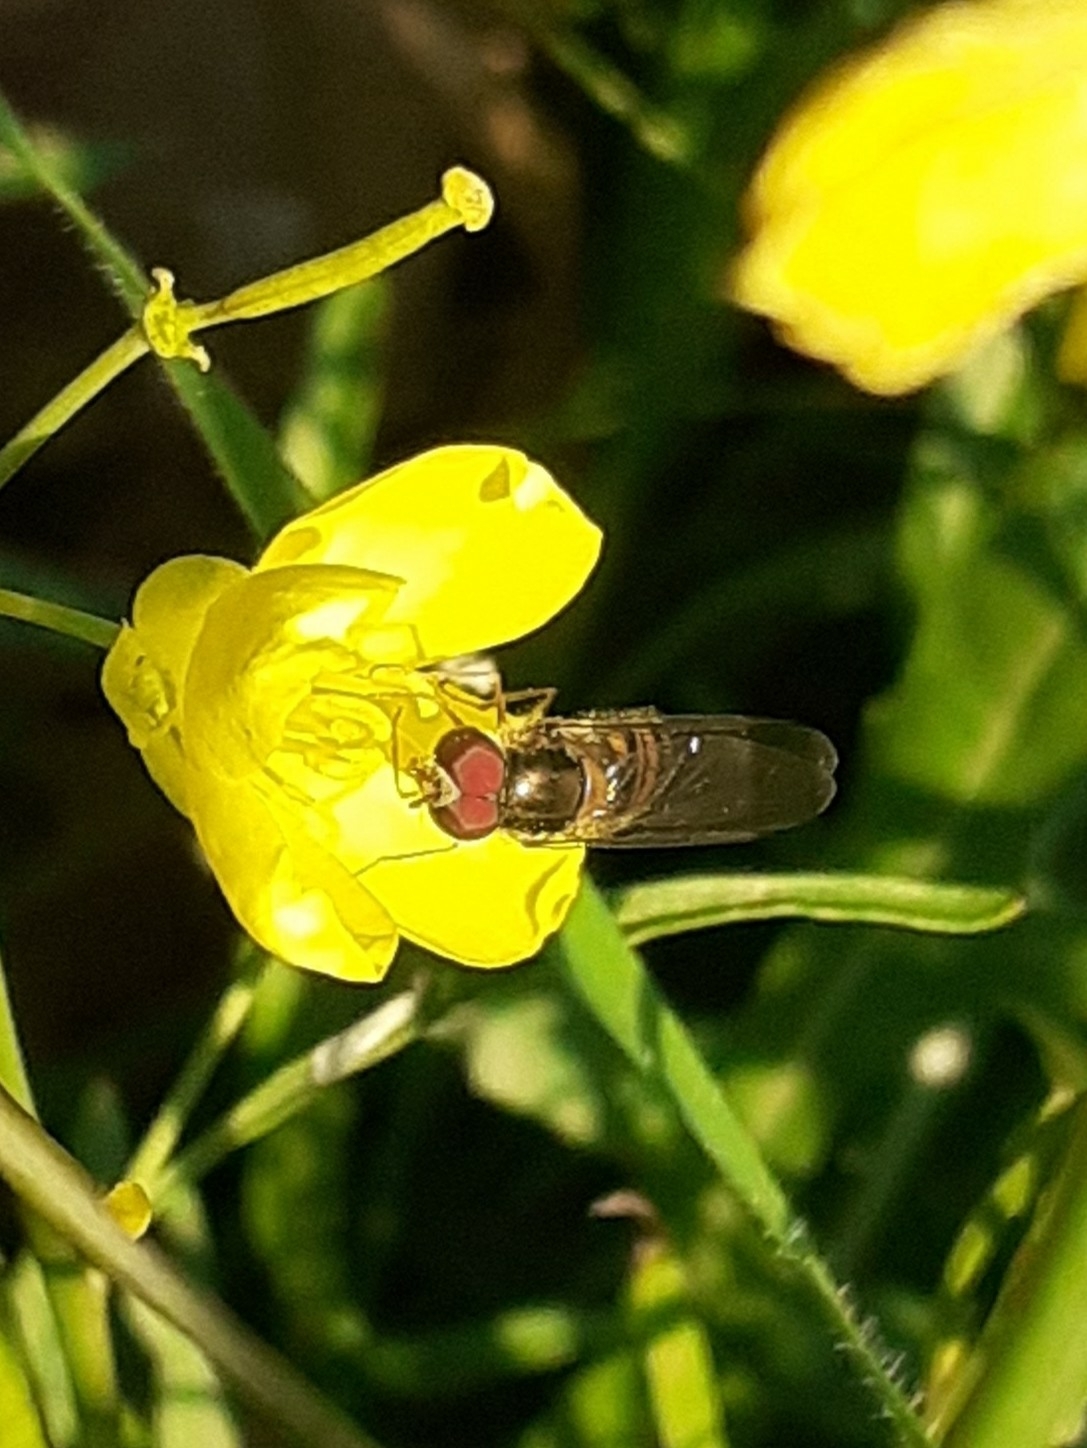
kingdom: Animalia
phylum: Arthropoda
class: Insecta
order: Diptera
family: Syrphidae
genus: Episyrphus
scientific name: Episyrphus balteatus
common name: Marmalade hoverfly
